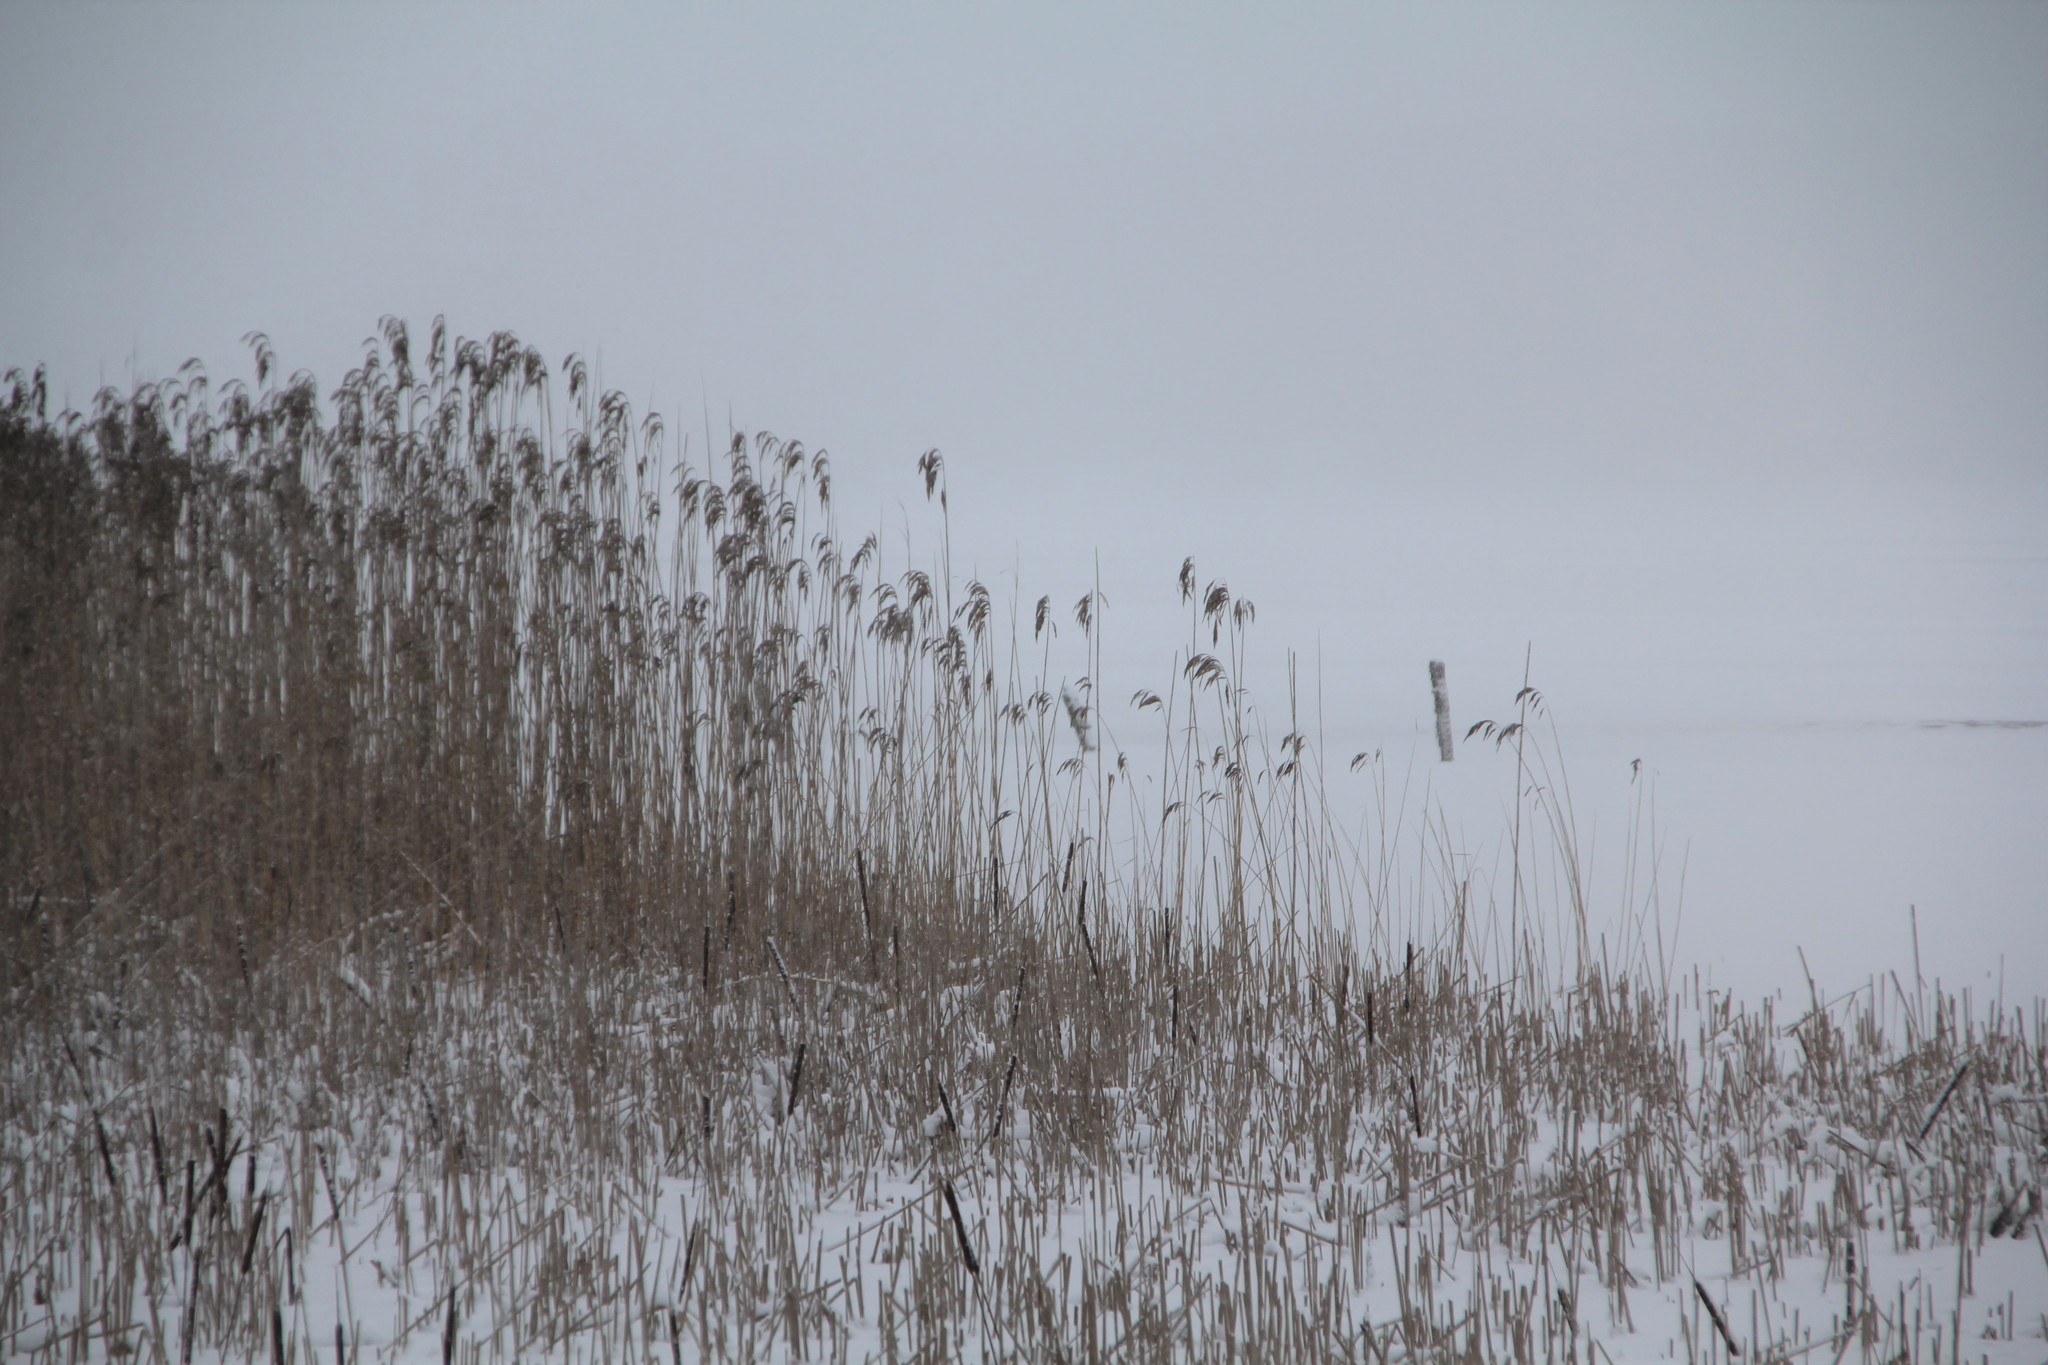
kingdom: Plantae
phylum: Tracheophyta
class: Liliopsida
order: Poales
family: Poaceae
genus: Phragmites
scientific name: Phragmites australis
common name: Common reed
